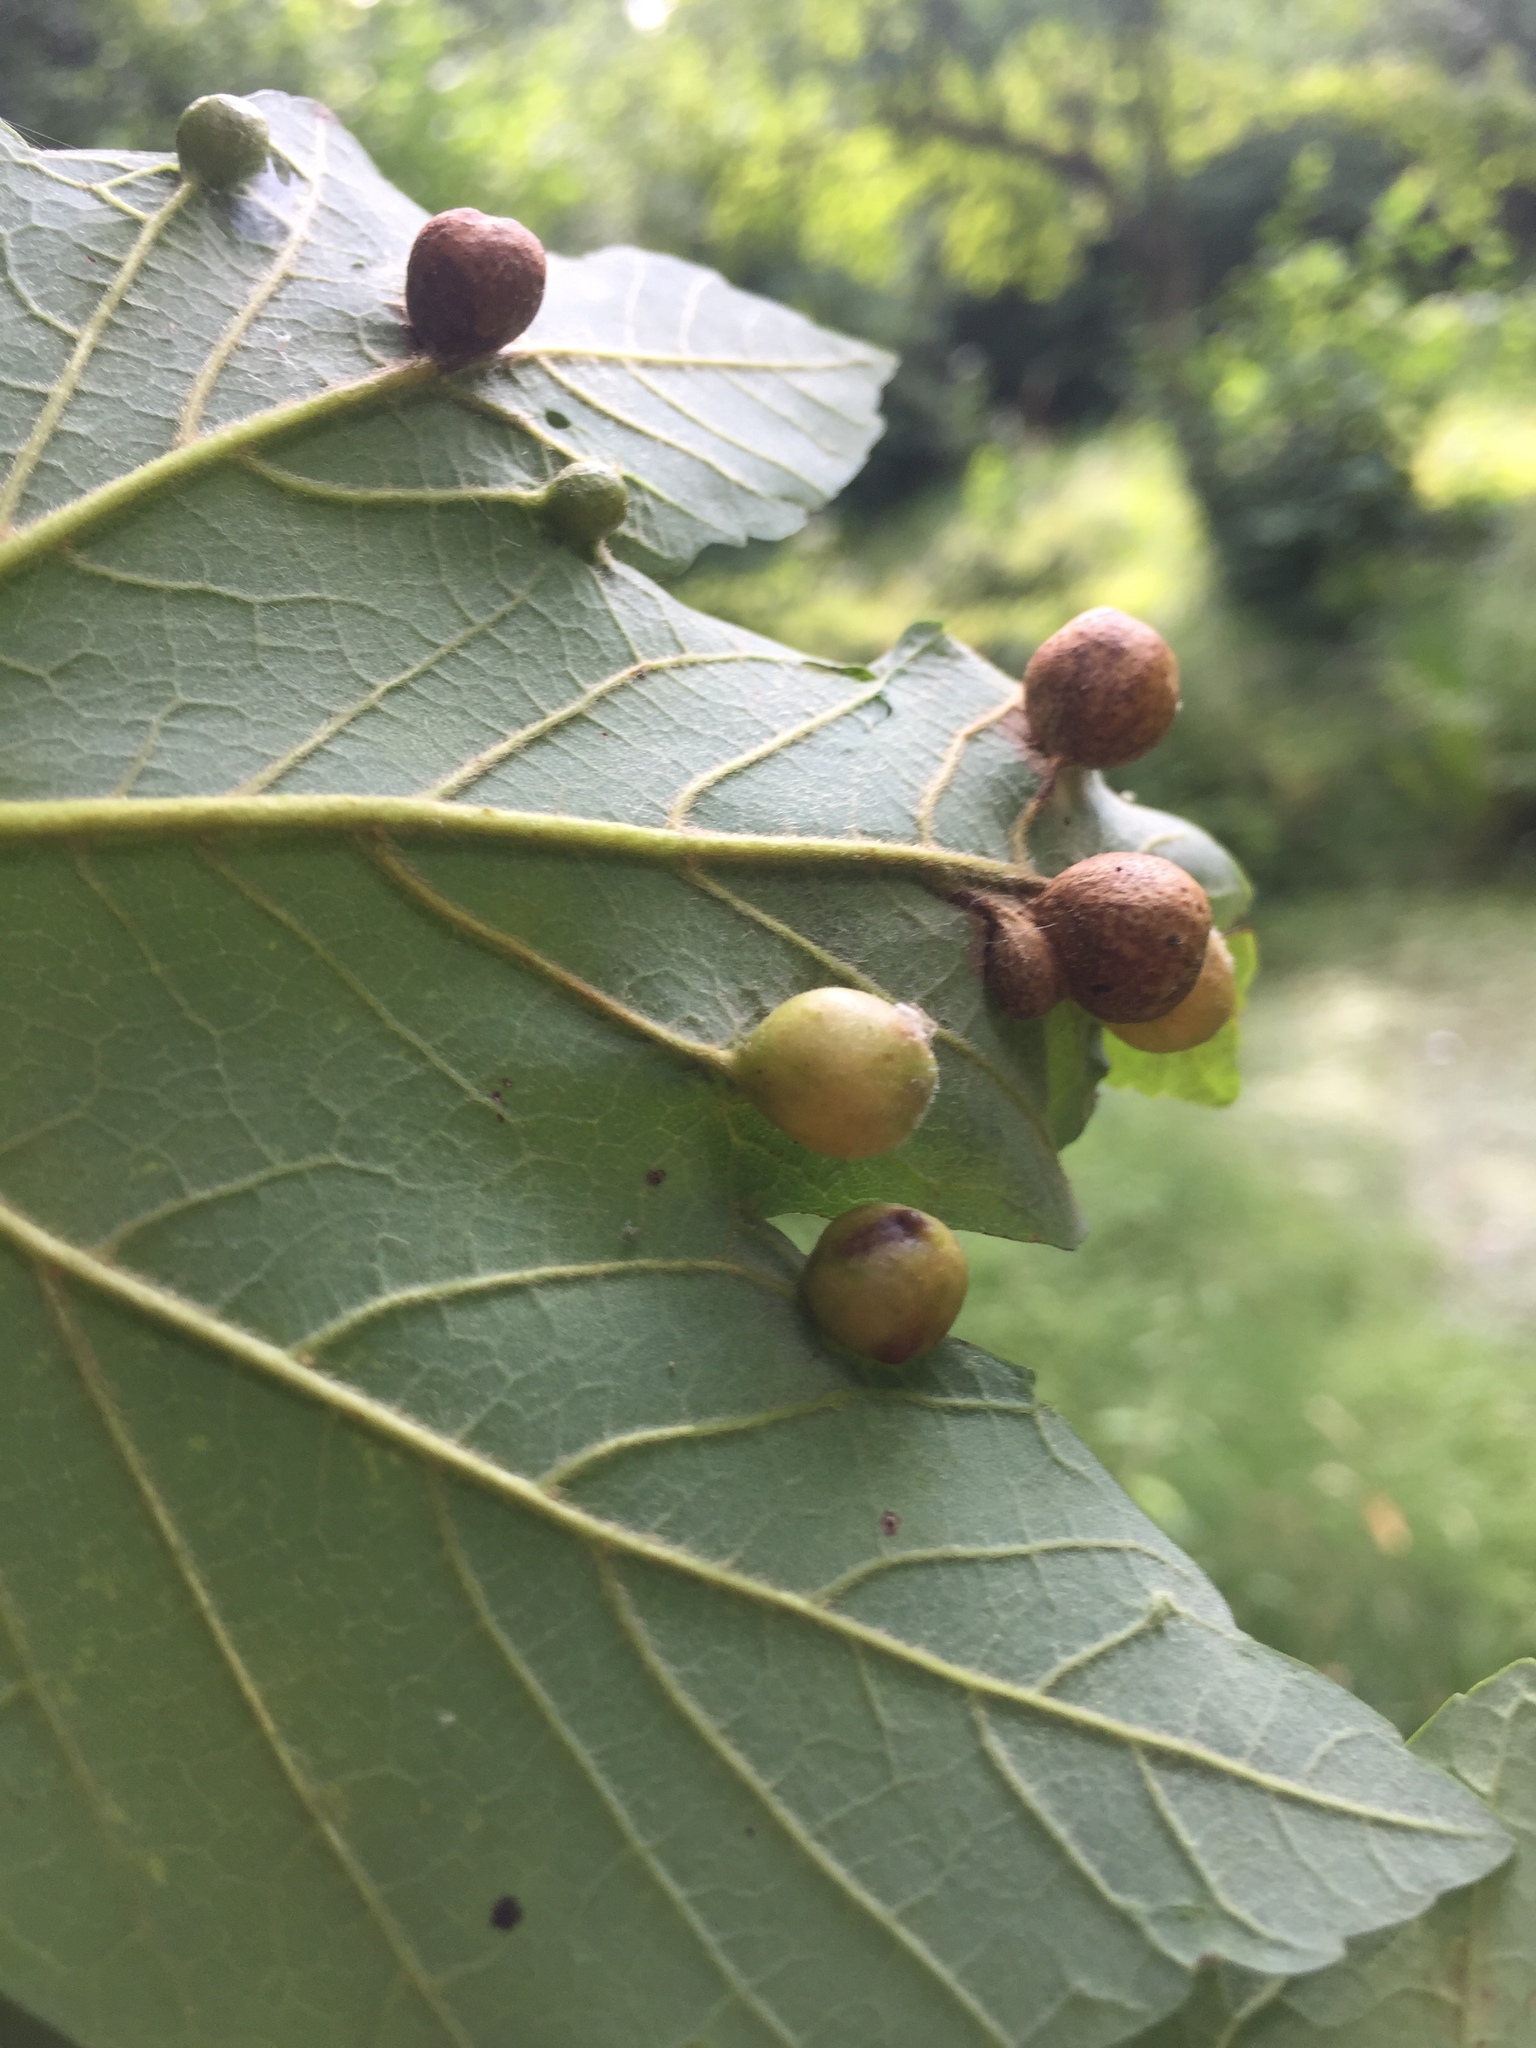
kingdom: Animalia
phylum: Arthropoda
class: Insecta
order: Hymenoptera
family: Cynipidae
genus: Pediaspis
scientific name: Pediaspis aceris
